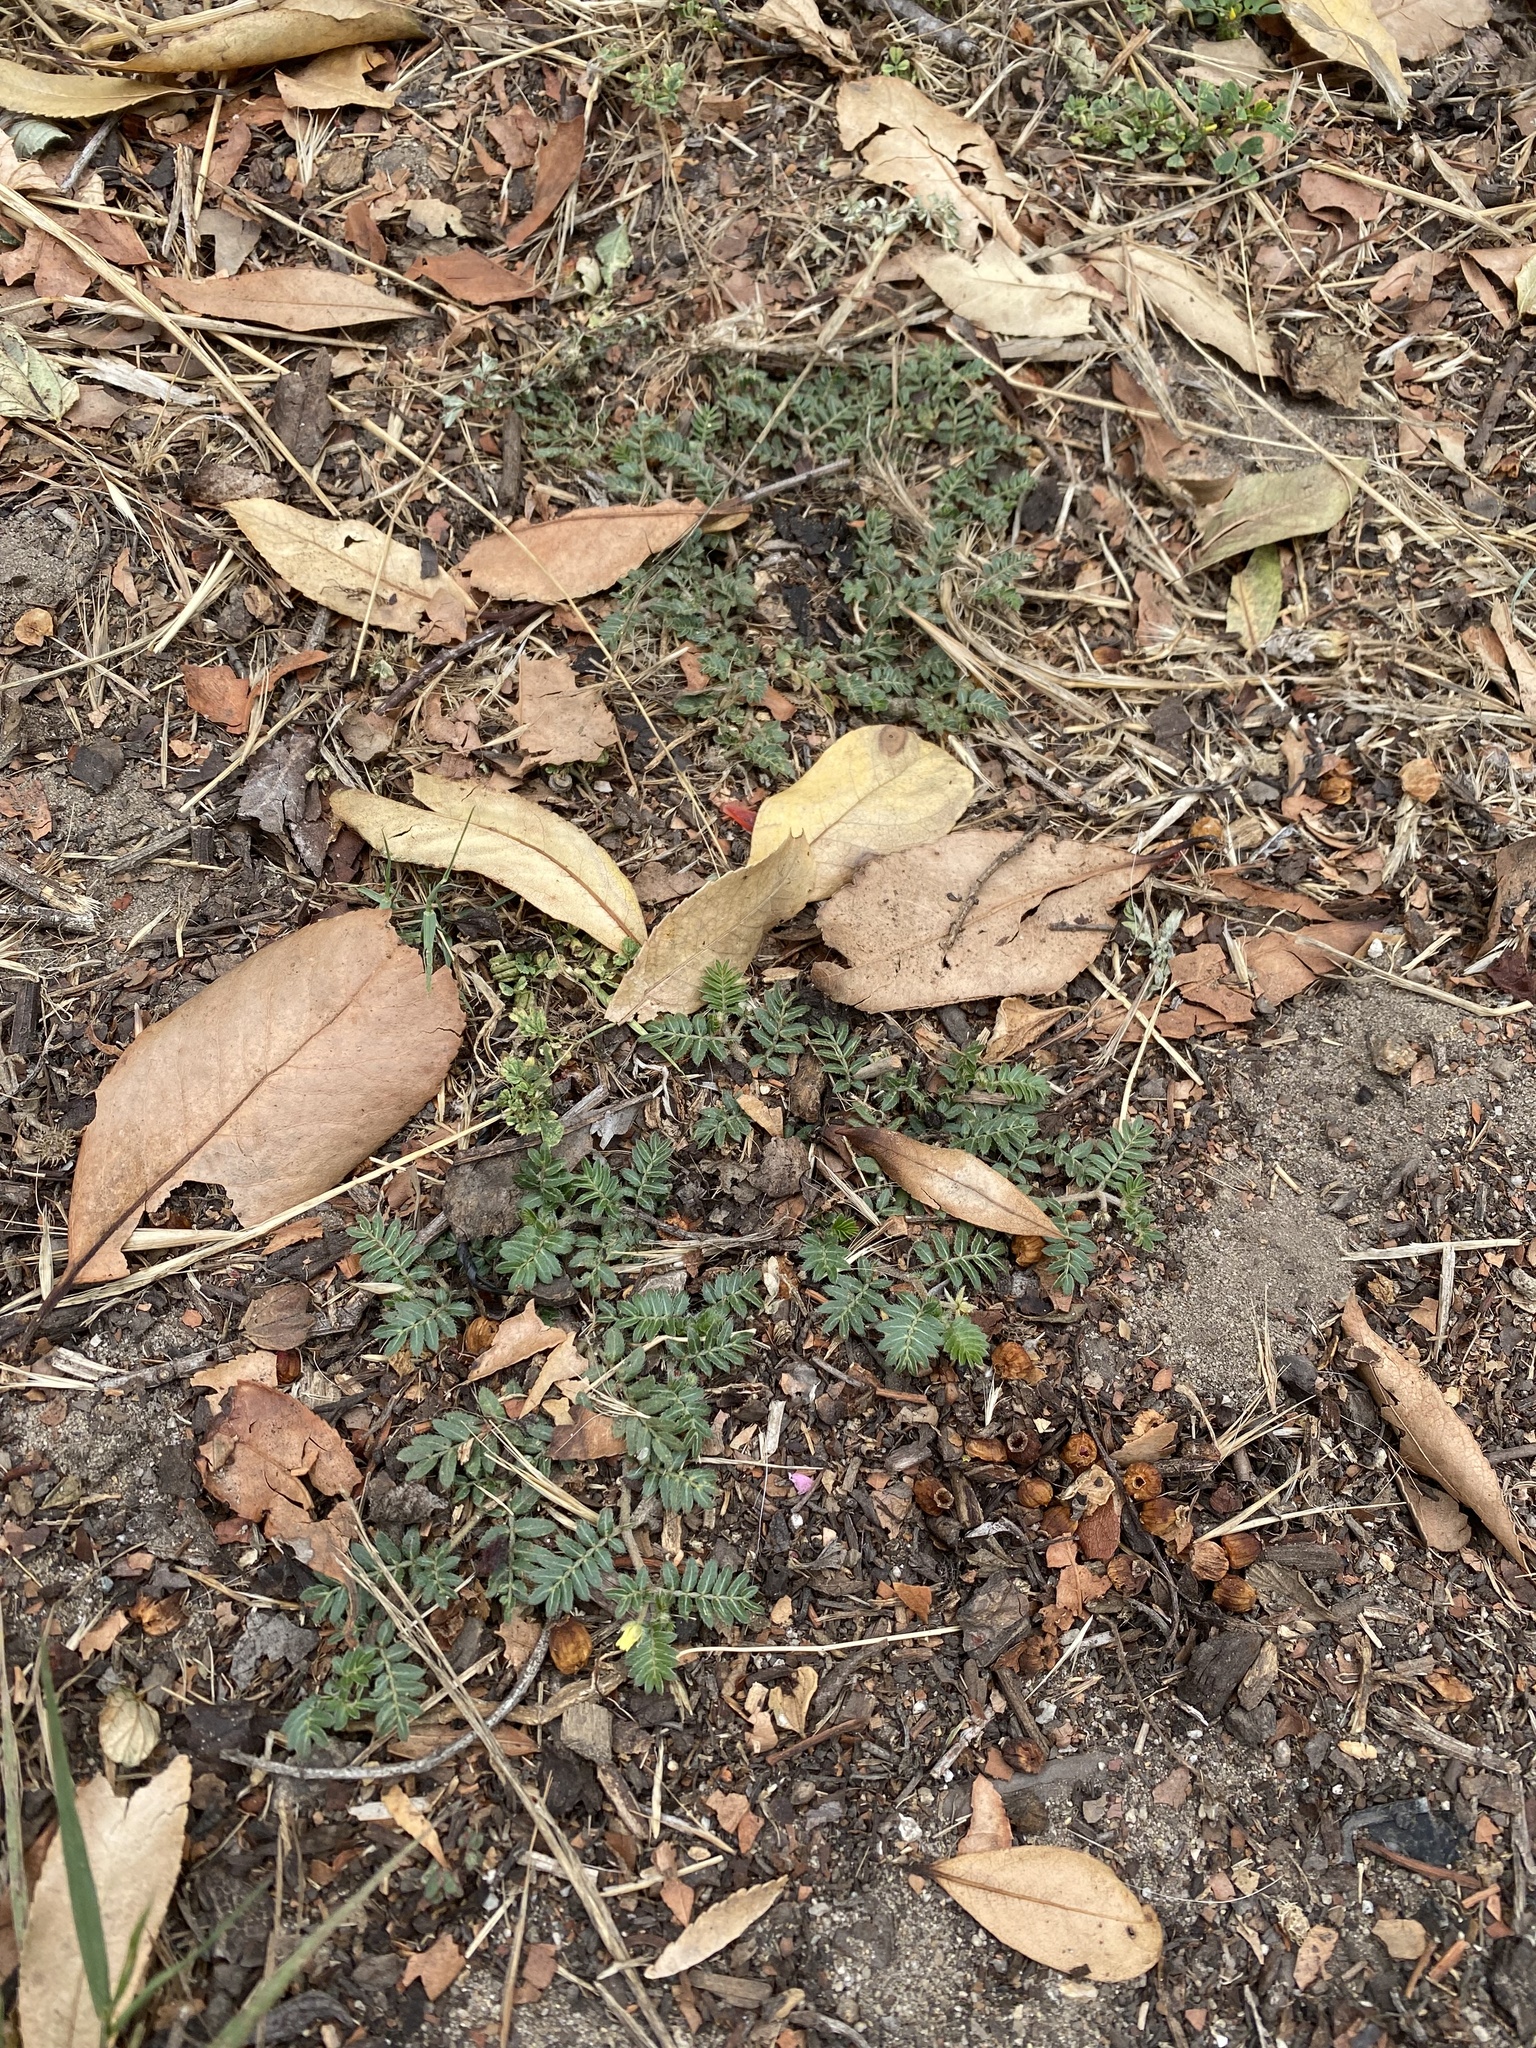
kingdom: Plantae
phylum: Tracheophyta
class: Magnoliopsida
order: Zygophyllales
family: Zygophyllaceae
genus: Tribulus
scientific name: Tribulus terrestris
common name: Puncturevine
